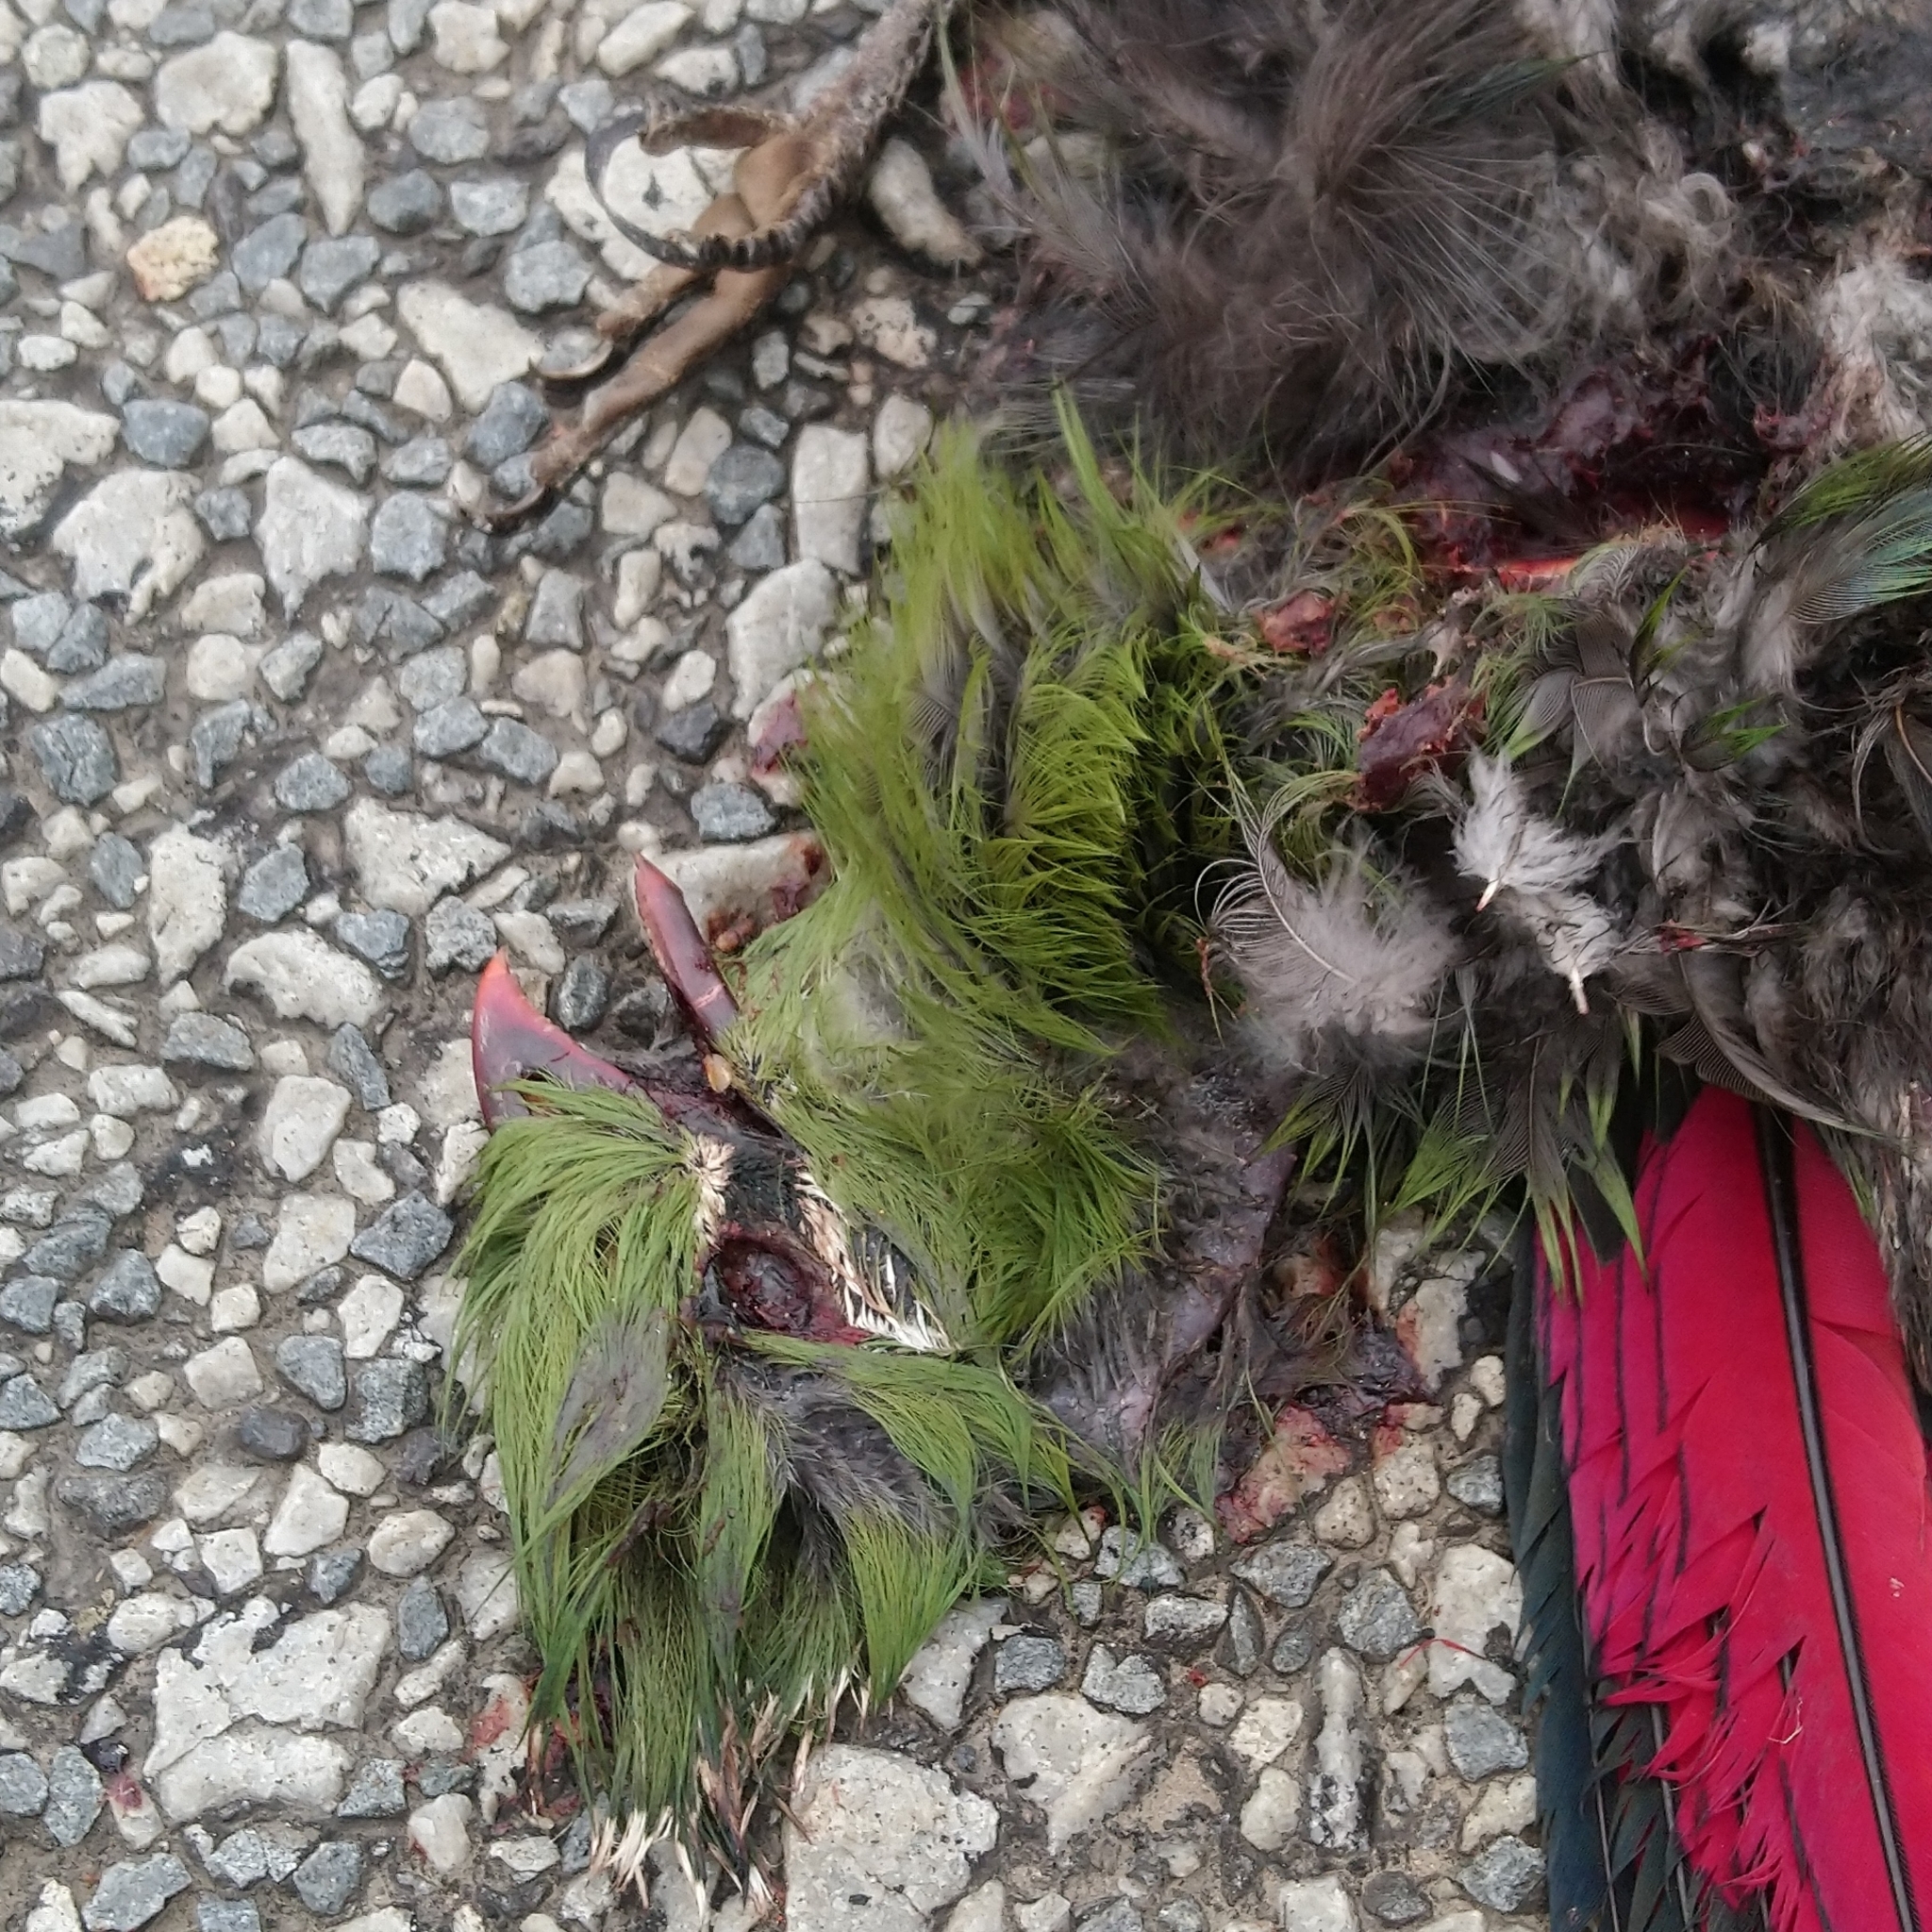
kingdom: Animalia
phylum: Chordata
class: Aves
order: Musophagiformes
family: Musophagidae
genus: Tauraco
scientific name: Tauraco corythaix
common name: Knysna turaco
